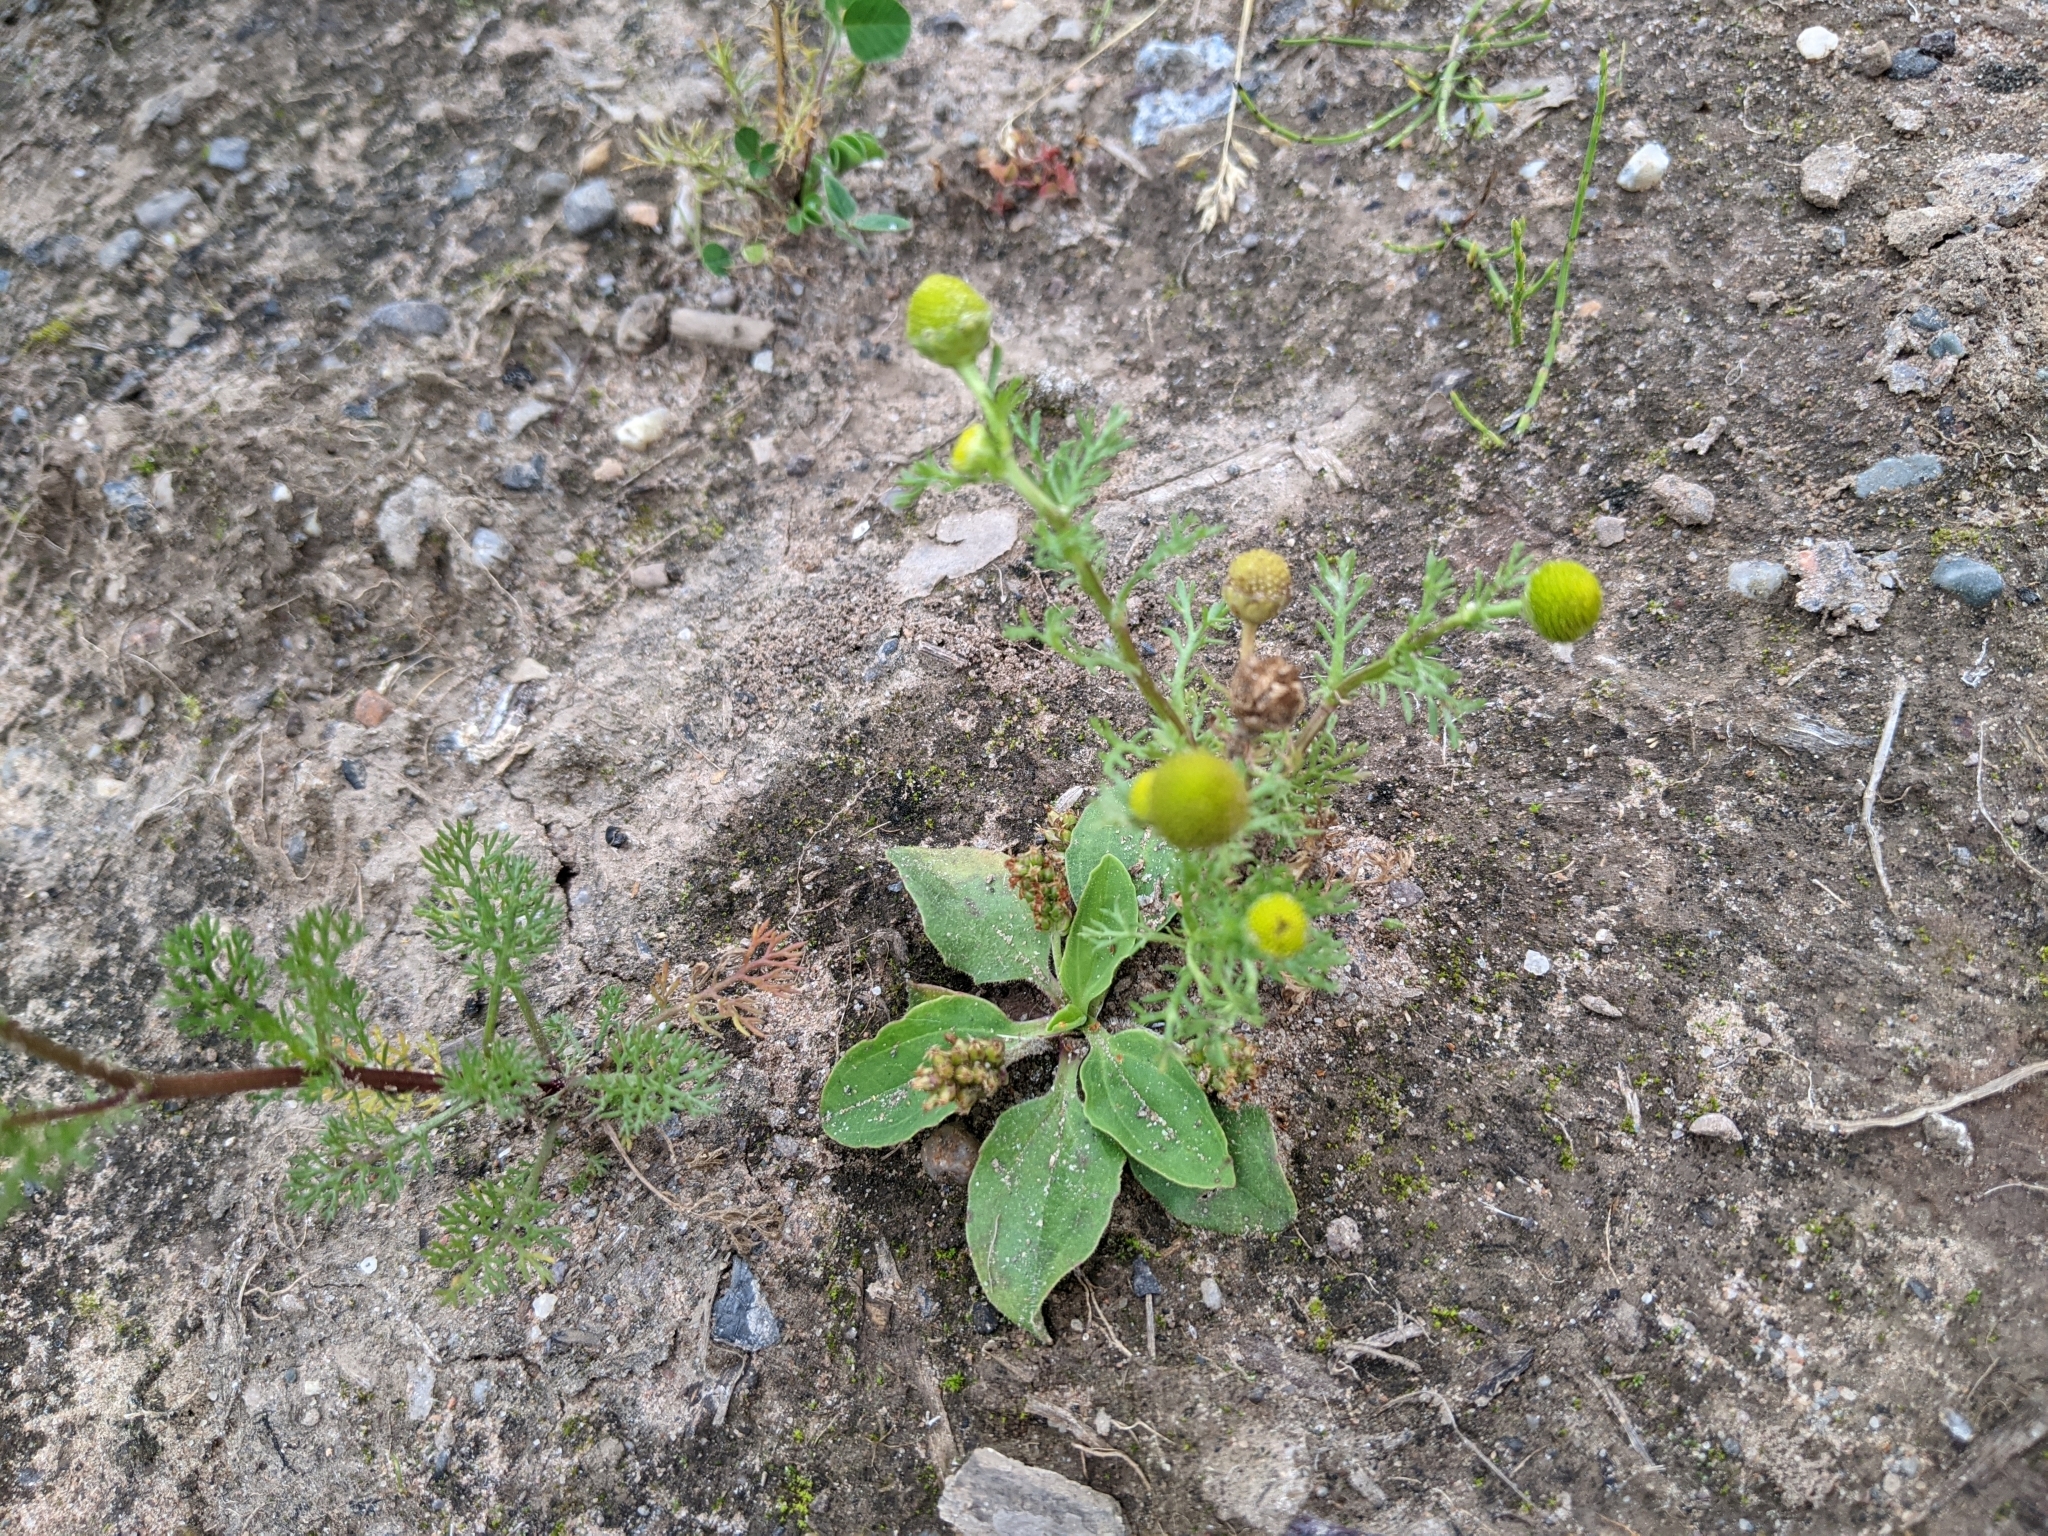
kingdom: Plantae
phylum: Tracheophyta
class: Magnoliopsida
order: Asterales
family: Asteraceae
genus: Matricaria
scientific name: Matricaria discoidea
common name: Disc mayweed
